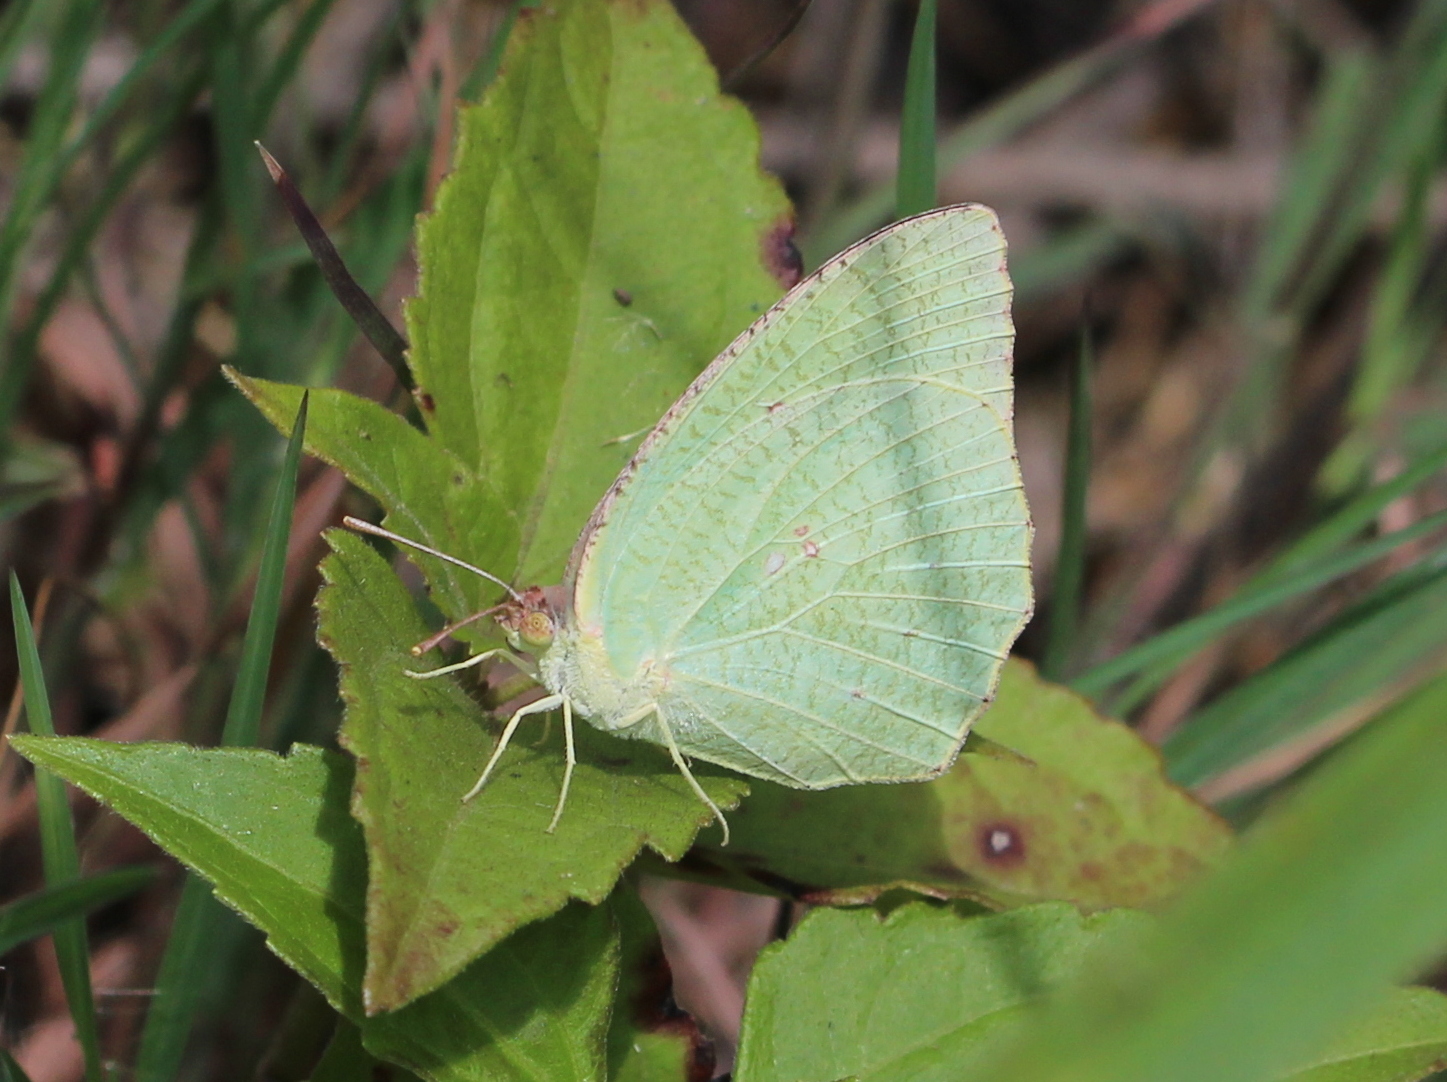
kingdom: Animalia
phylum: Arthropoda
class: Insecta
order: Lepidoptera
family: Pieridae
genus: Catopsilia
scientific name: Catopsilia pyranthe
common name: Mottled emigrant
